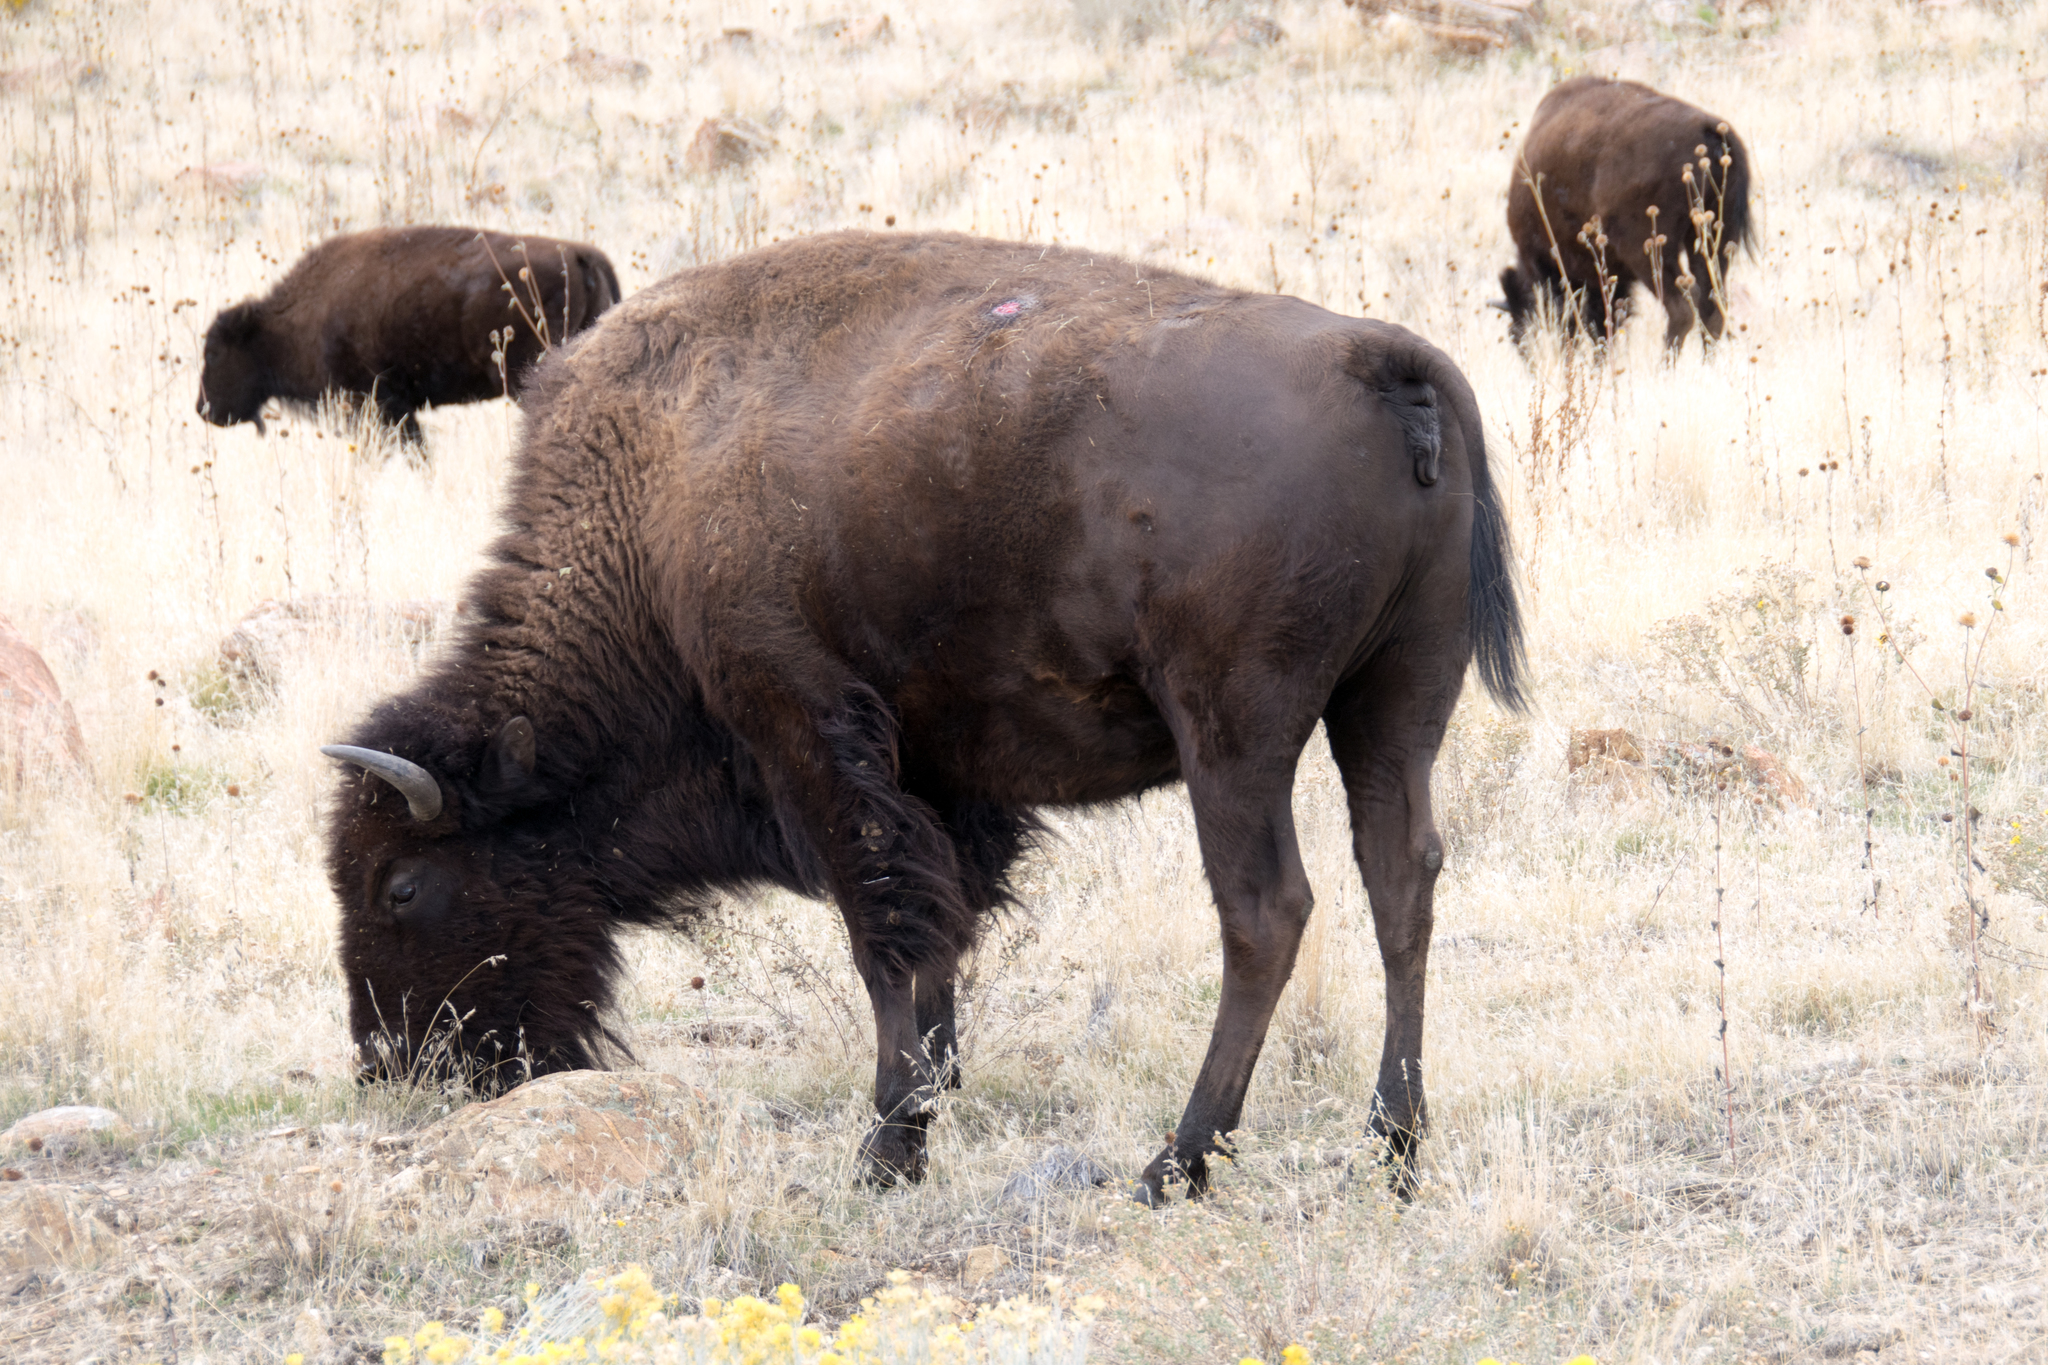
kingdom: Animalia
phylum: Chordata
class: Mammalia
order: Artiodactyla
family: Bovidae
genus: Bison
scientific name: Bison bison
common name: American bison
